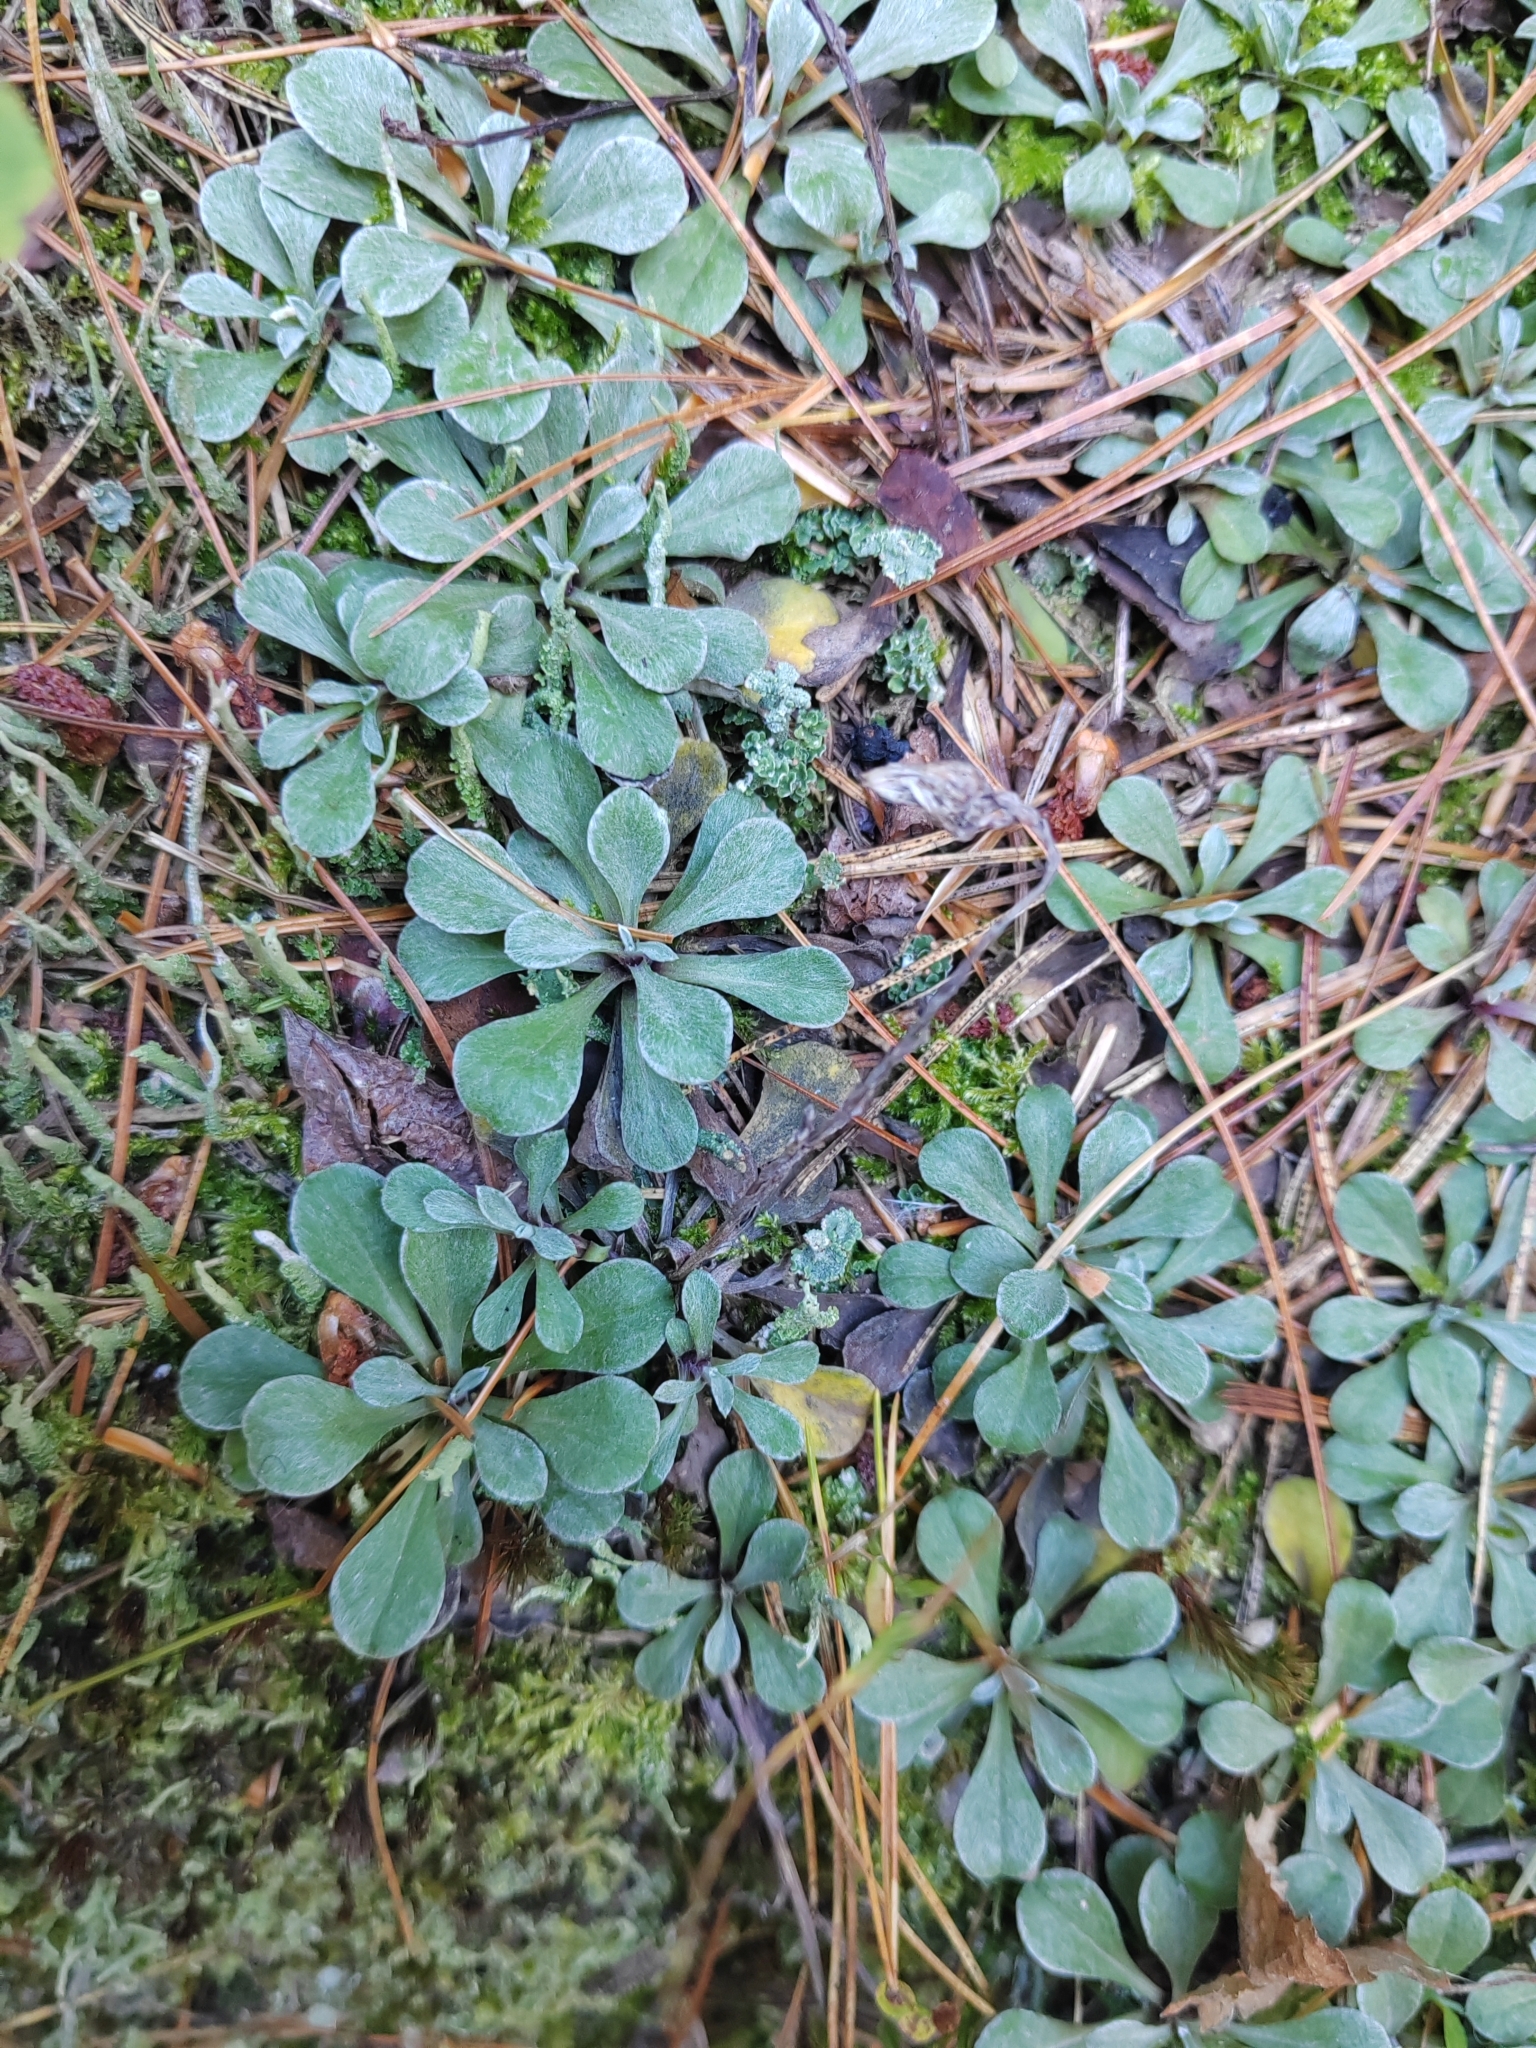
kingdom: Plantae
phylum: Tracheophyta
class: Magnoliopsida
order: Asterales
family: Asteraceae
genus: Antennaria
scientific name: Antennaria dioica
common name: Mountain everlasting
